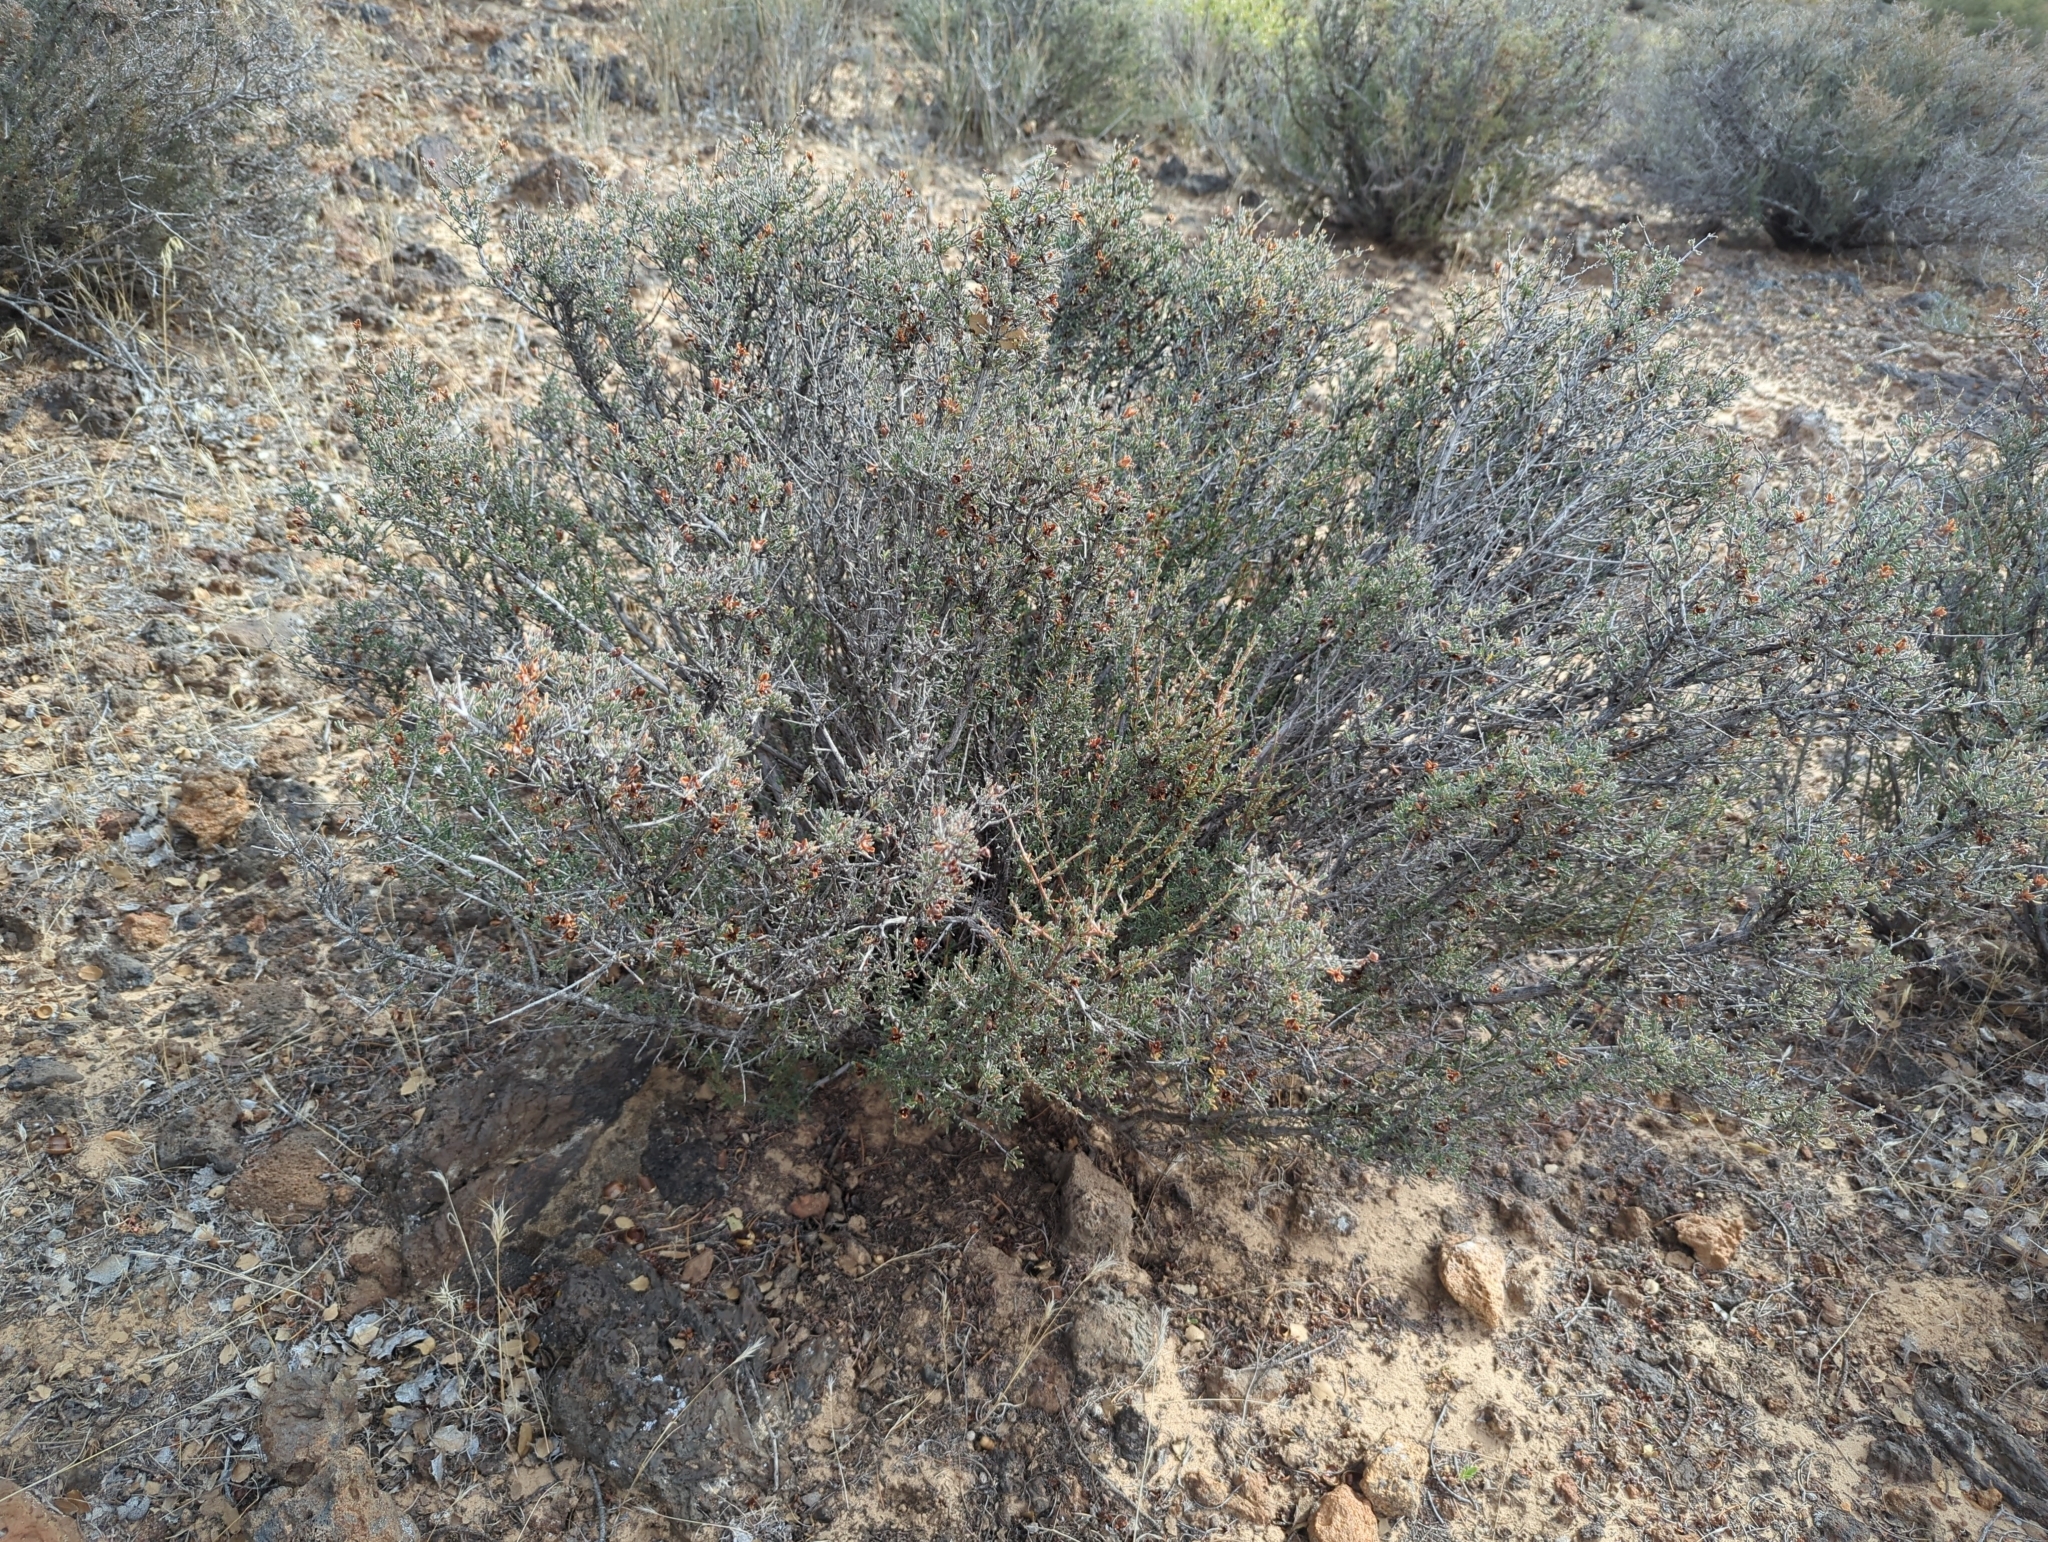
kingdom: Plantae
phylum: Tracheophyta
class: Magnoliopsida
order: Rosales
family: Rosaceae
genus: Coleogyne
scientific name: Coleogyne ramosissima
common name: Blackbrush
